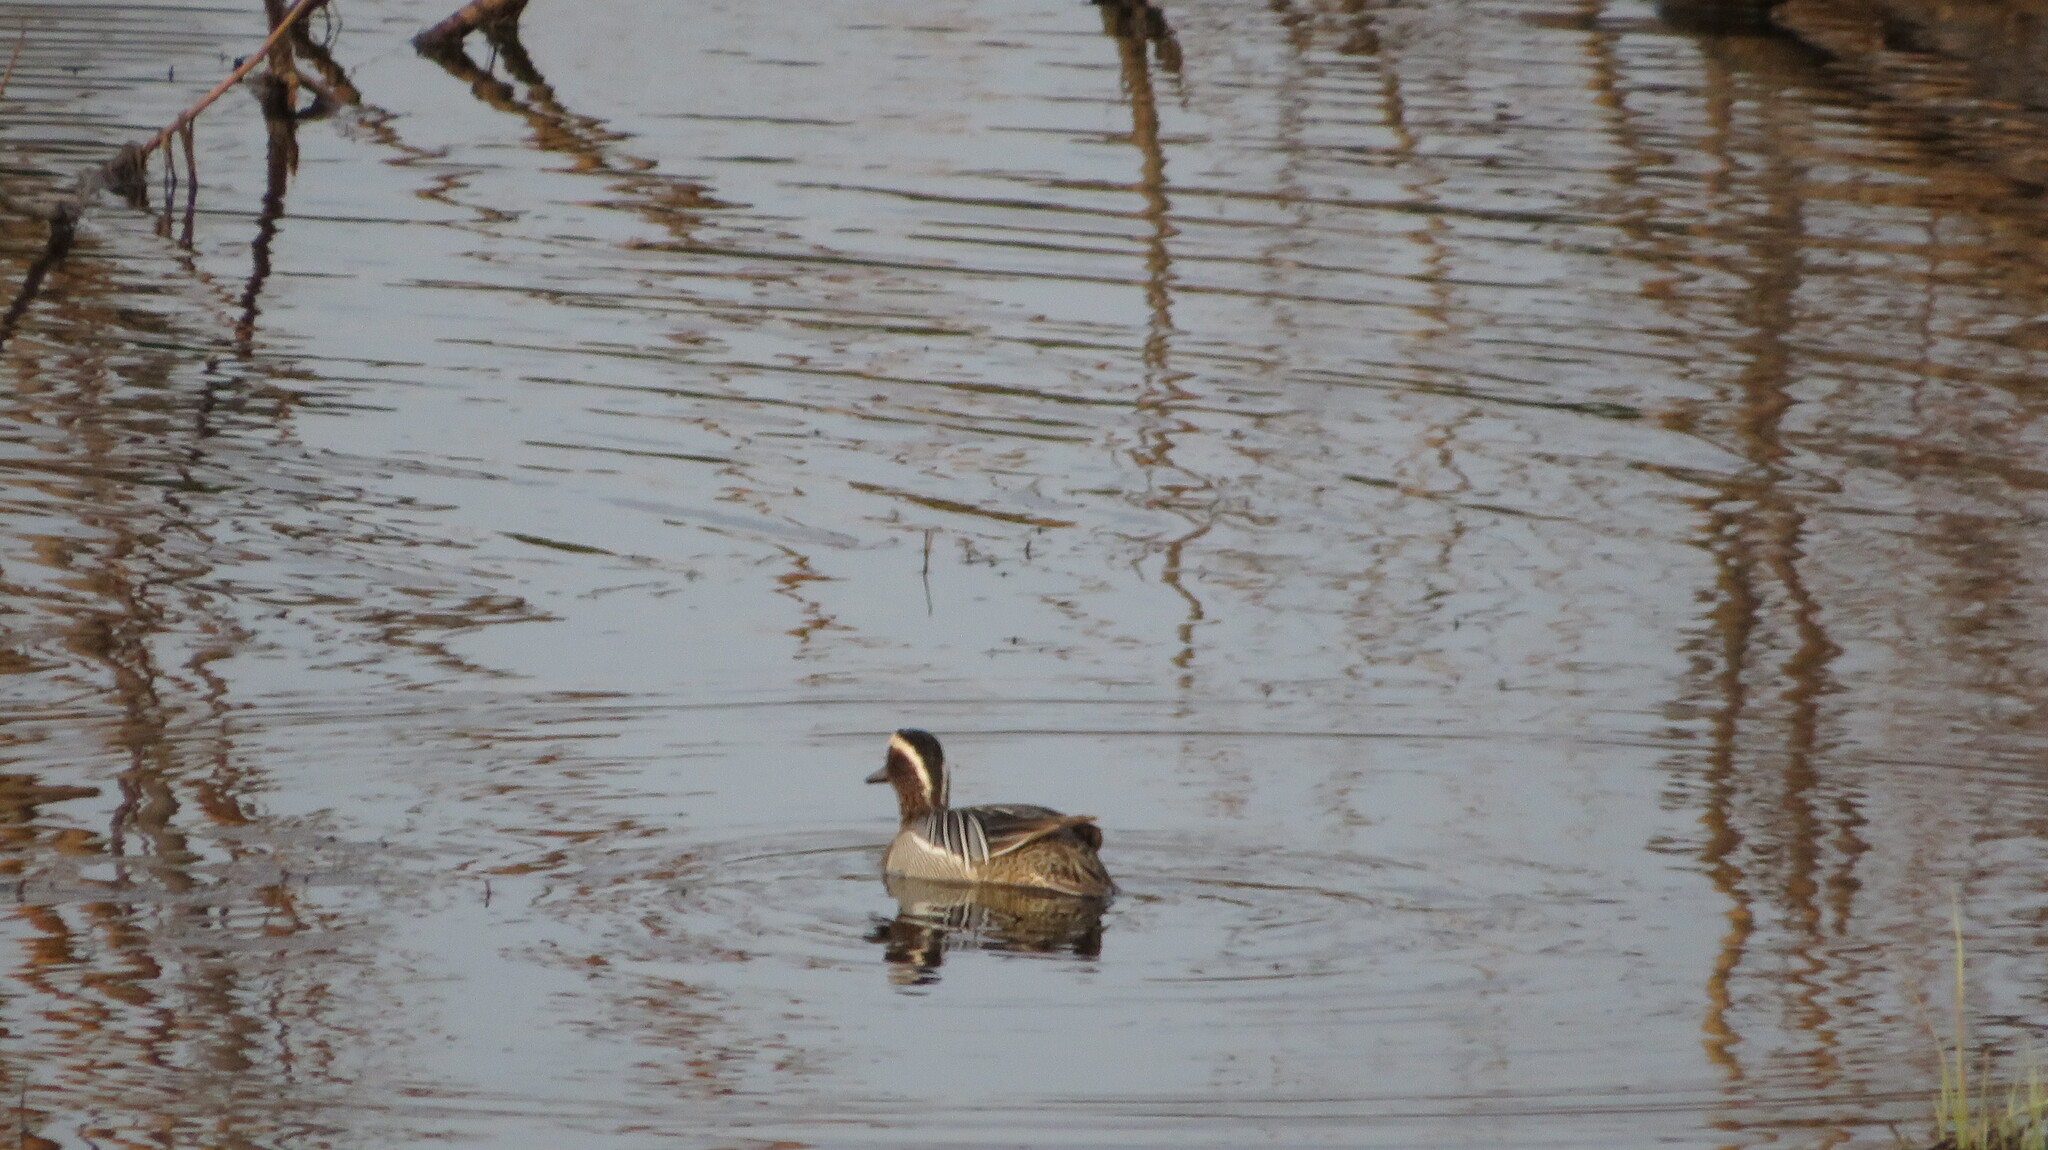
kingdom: Animalia
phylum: Chordata
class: Aves
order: Anseriformes
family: Anatidae
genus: Spatula
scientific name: Spatula querquedula
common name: Garganey
